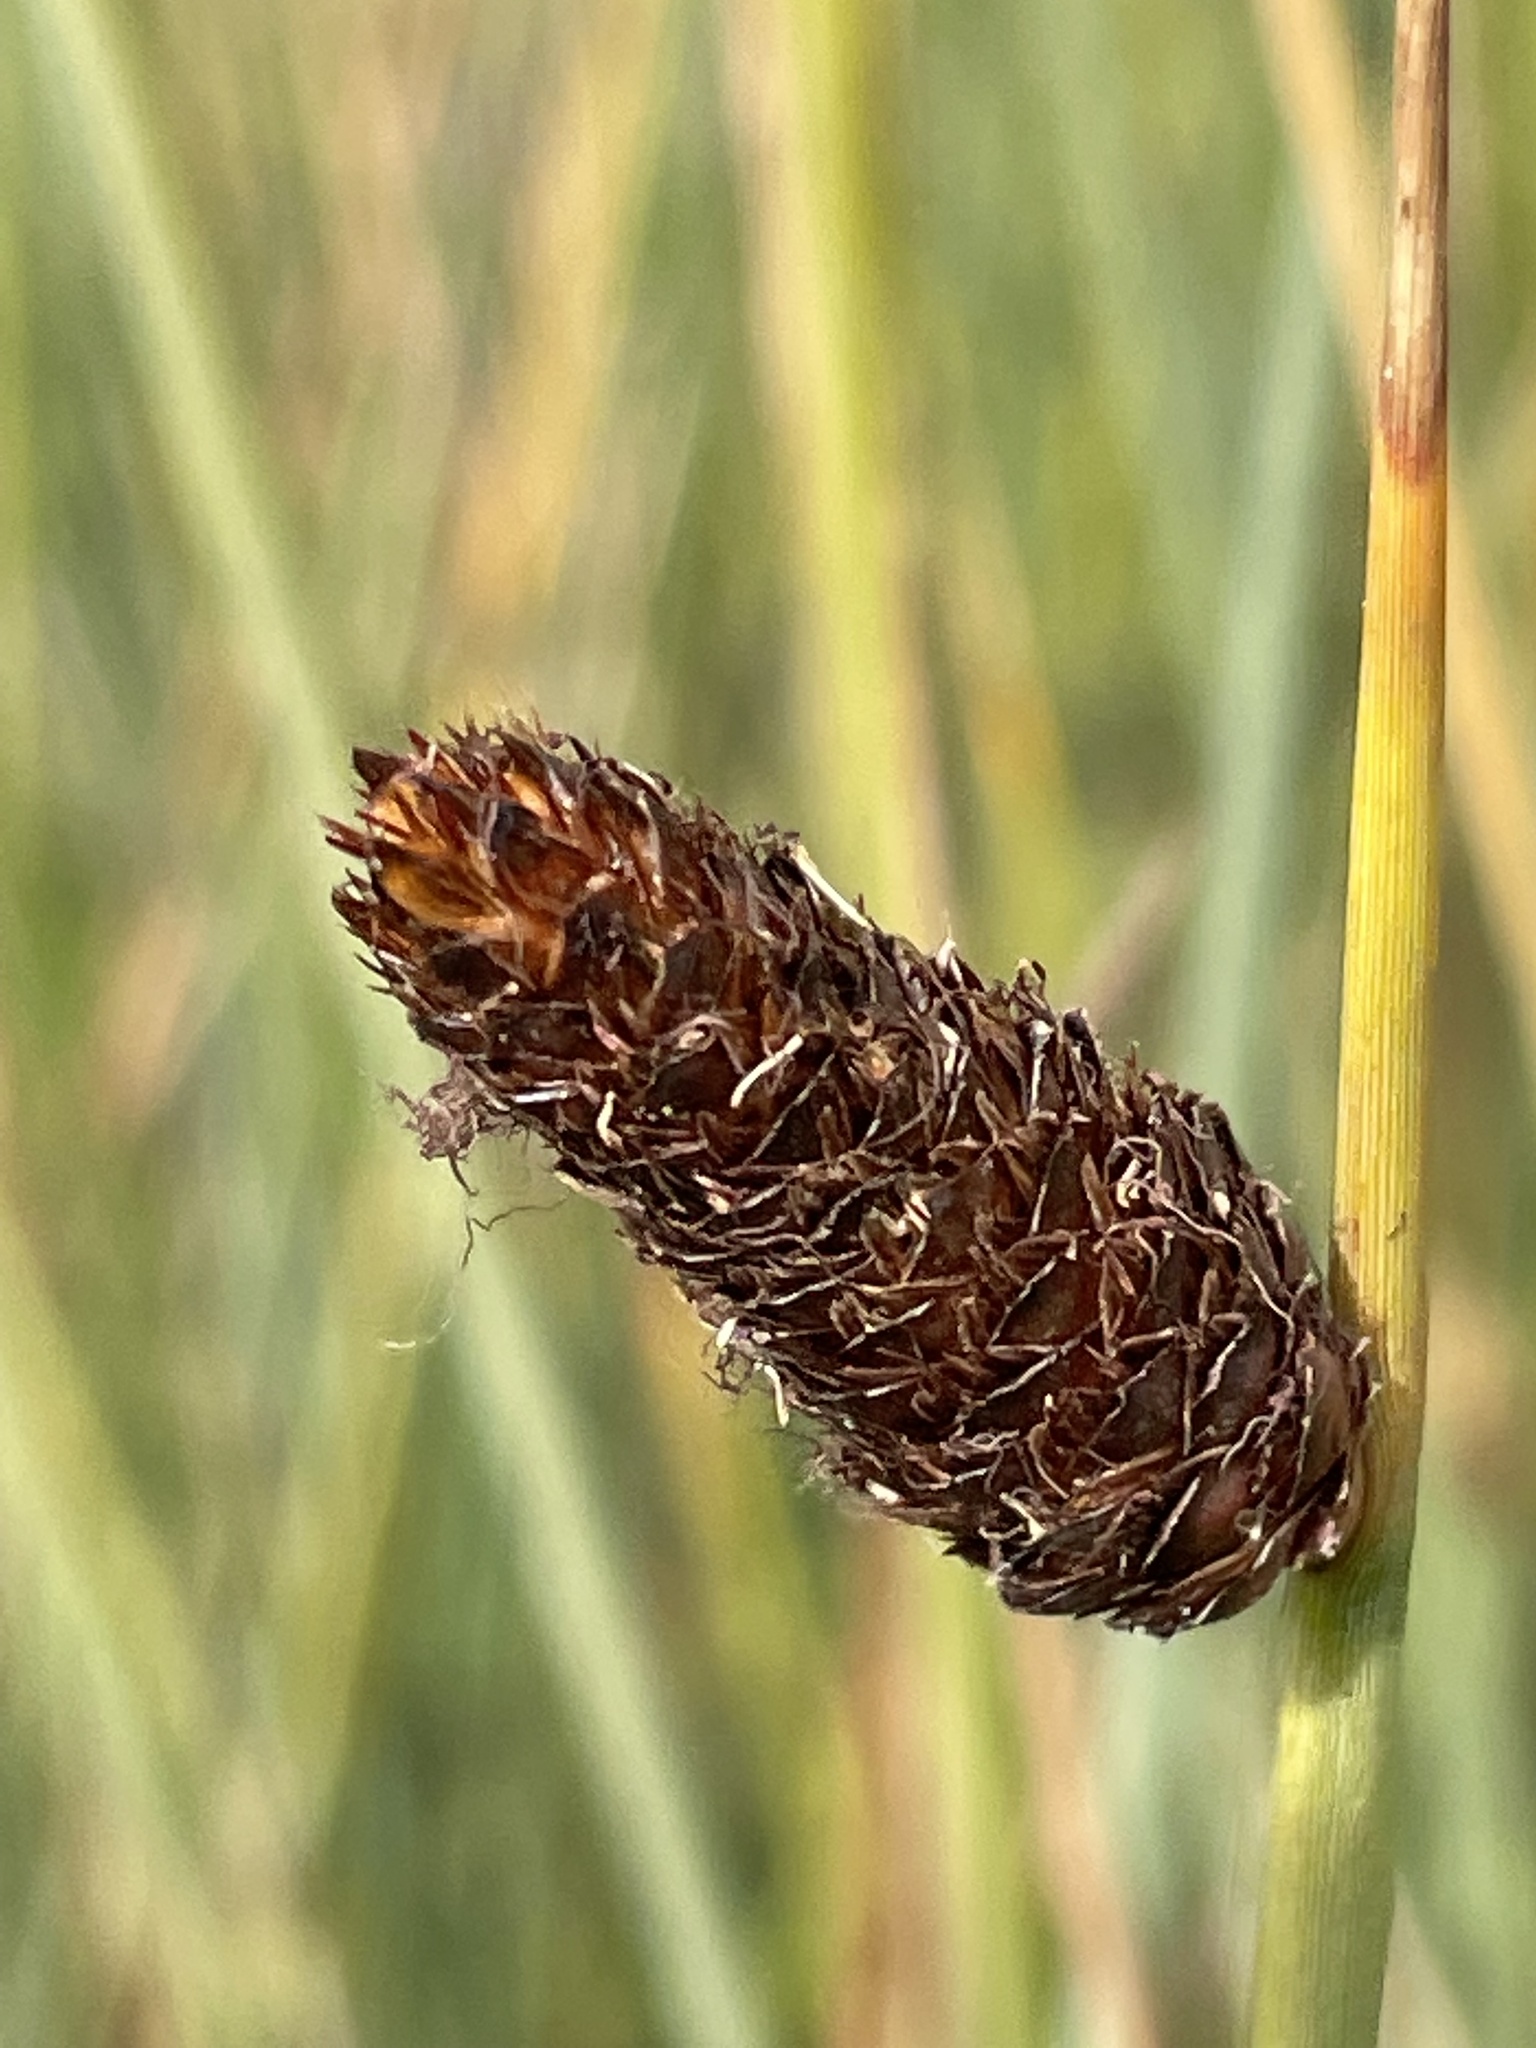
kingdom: Plantae
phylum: Tracheophyta
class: Liliopsida
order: Poales
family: Cyperaceae
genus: Lepironia
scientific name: Lepironia articulata
